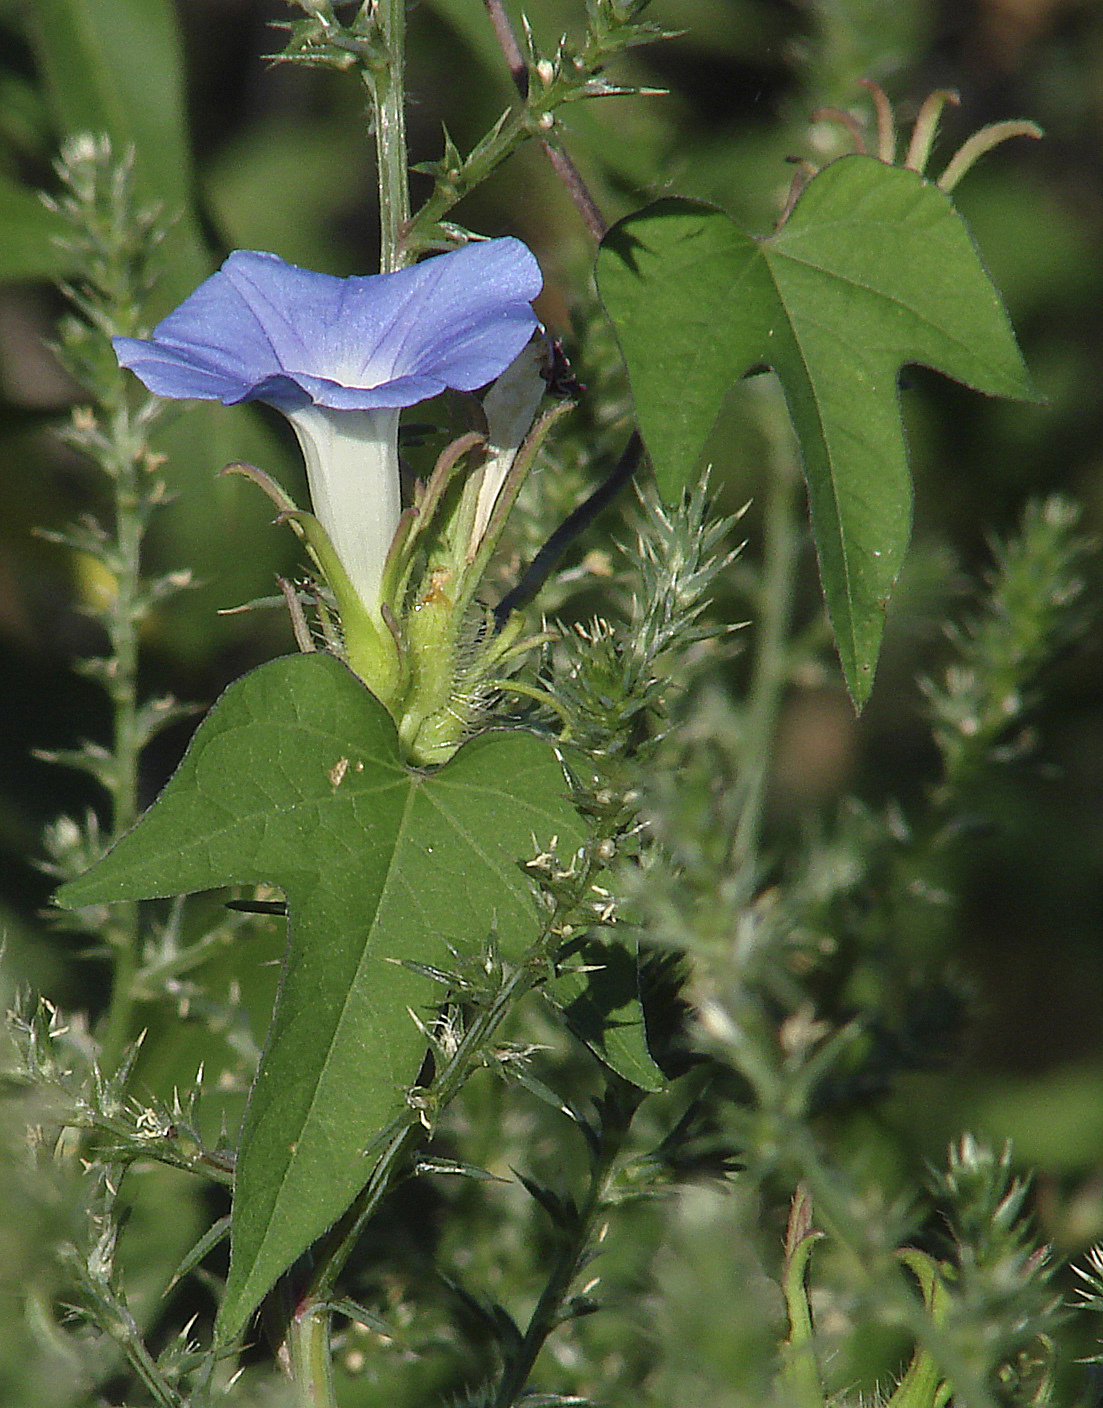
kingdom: Plantae
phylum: Tracheophyta
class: Magnoliopsida
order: Solanales
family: Convolvulaceae
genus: Ipomoea
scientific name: Ipomoea hederacea
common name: Ivy-leaved morning-glory
